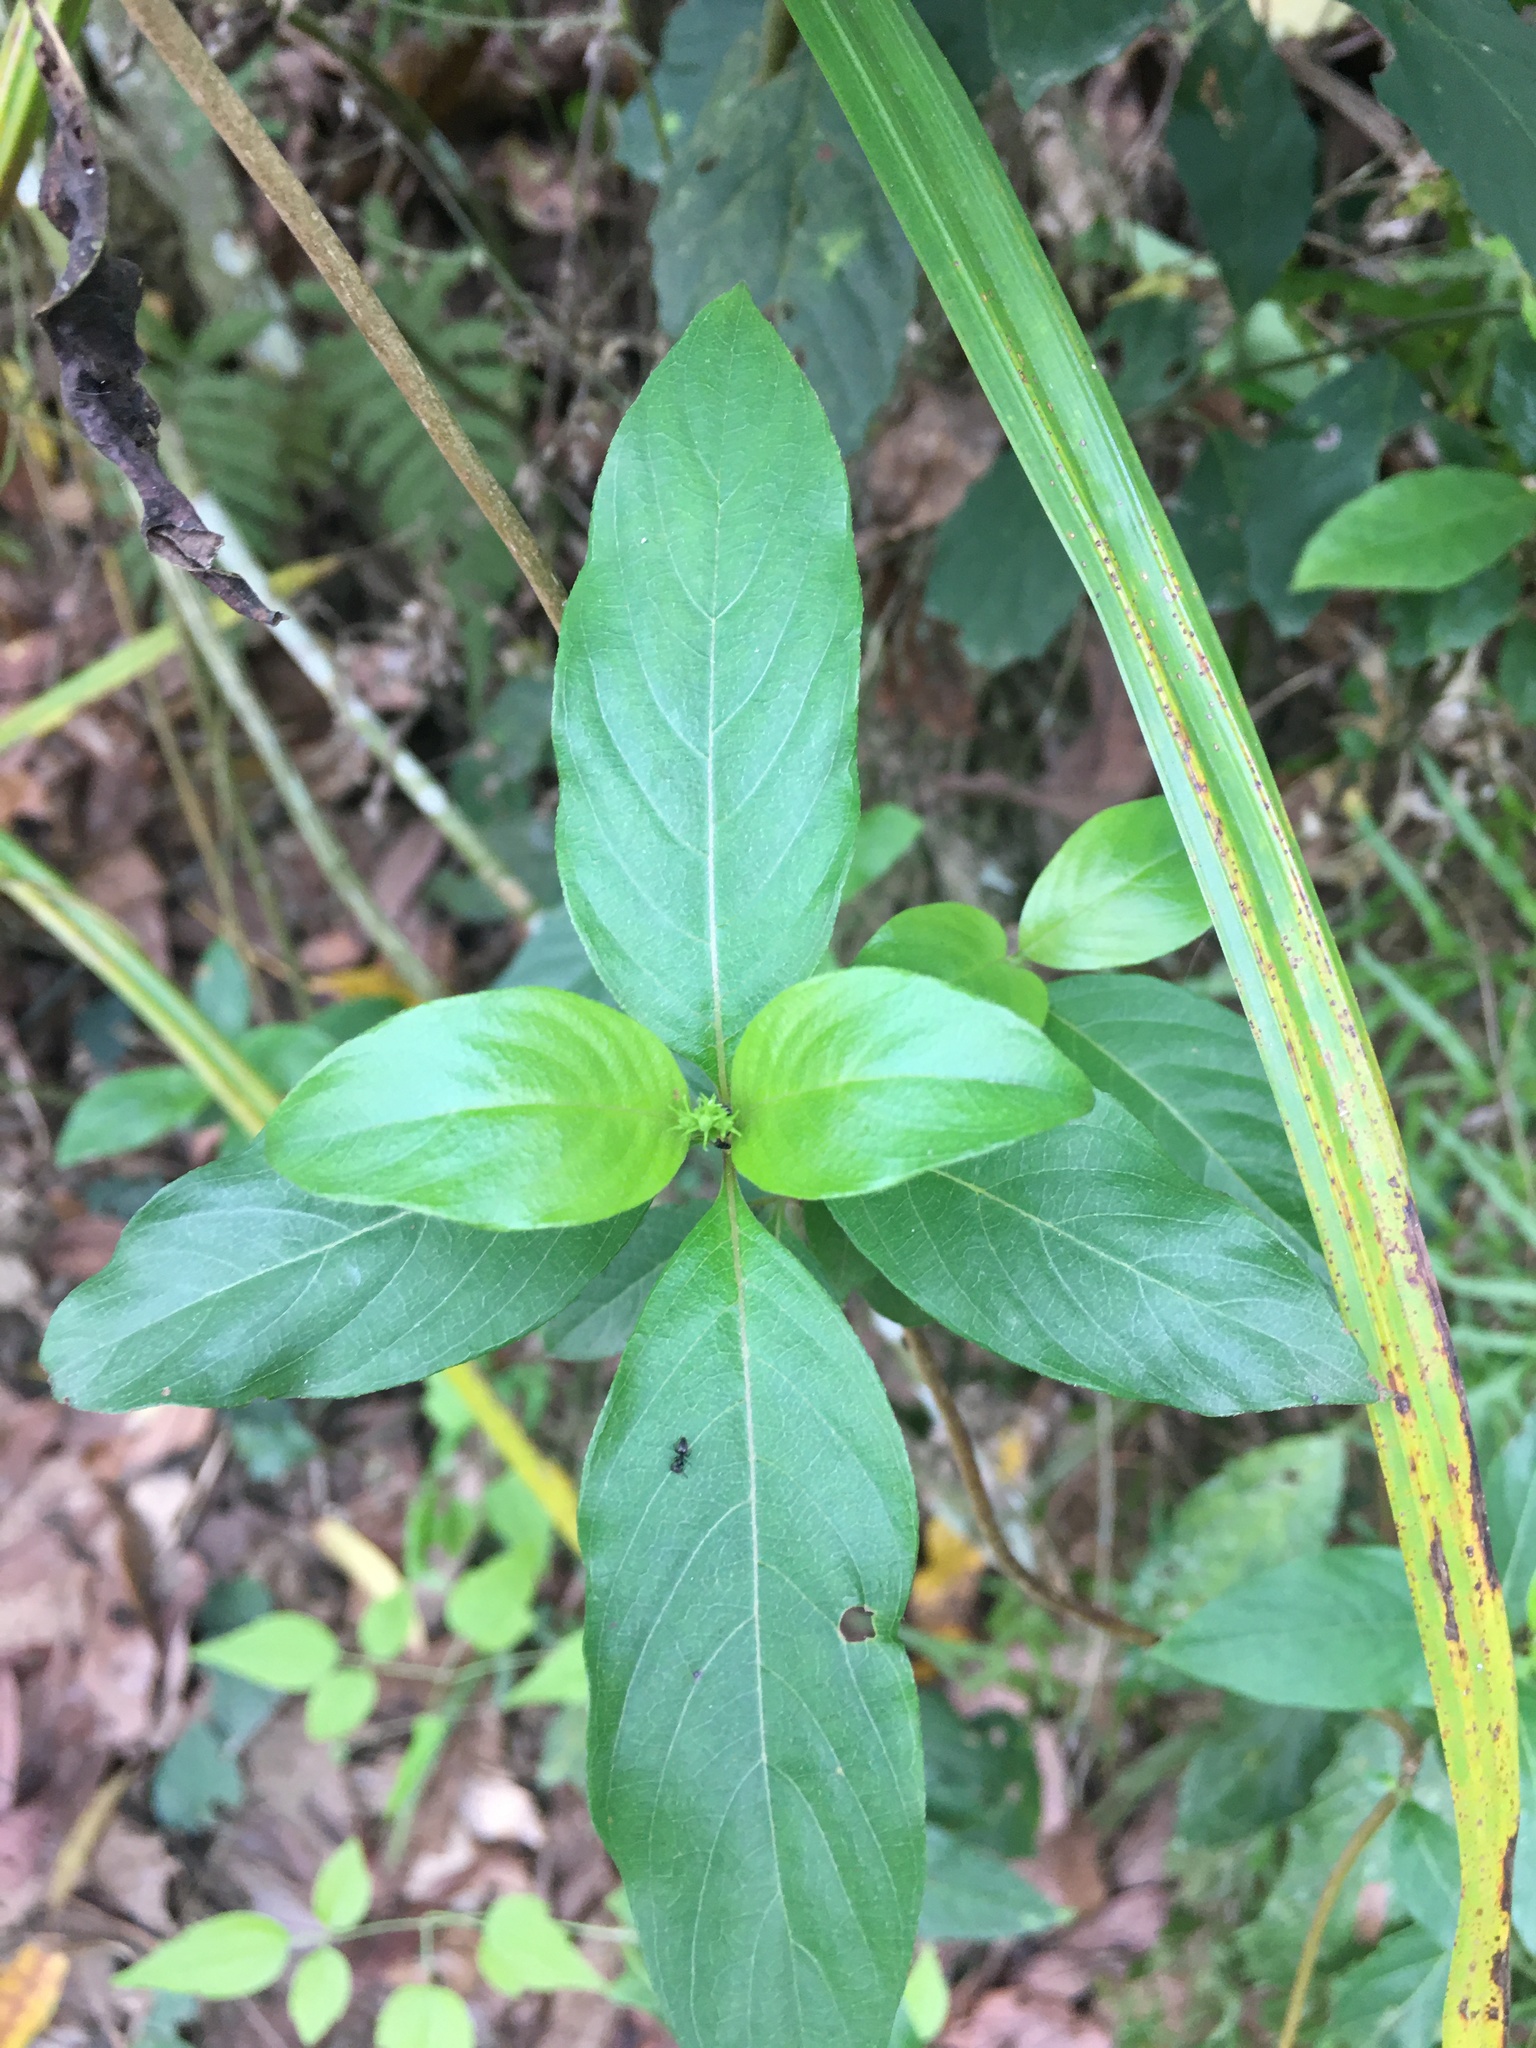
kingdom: Plantae
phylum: Tracheophyta
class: Magnoliopsida
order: Gentianales
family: Rubiaceae
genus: Mussaenda
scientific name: Mussaenda parviflora
